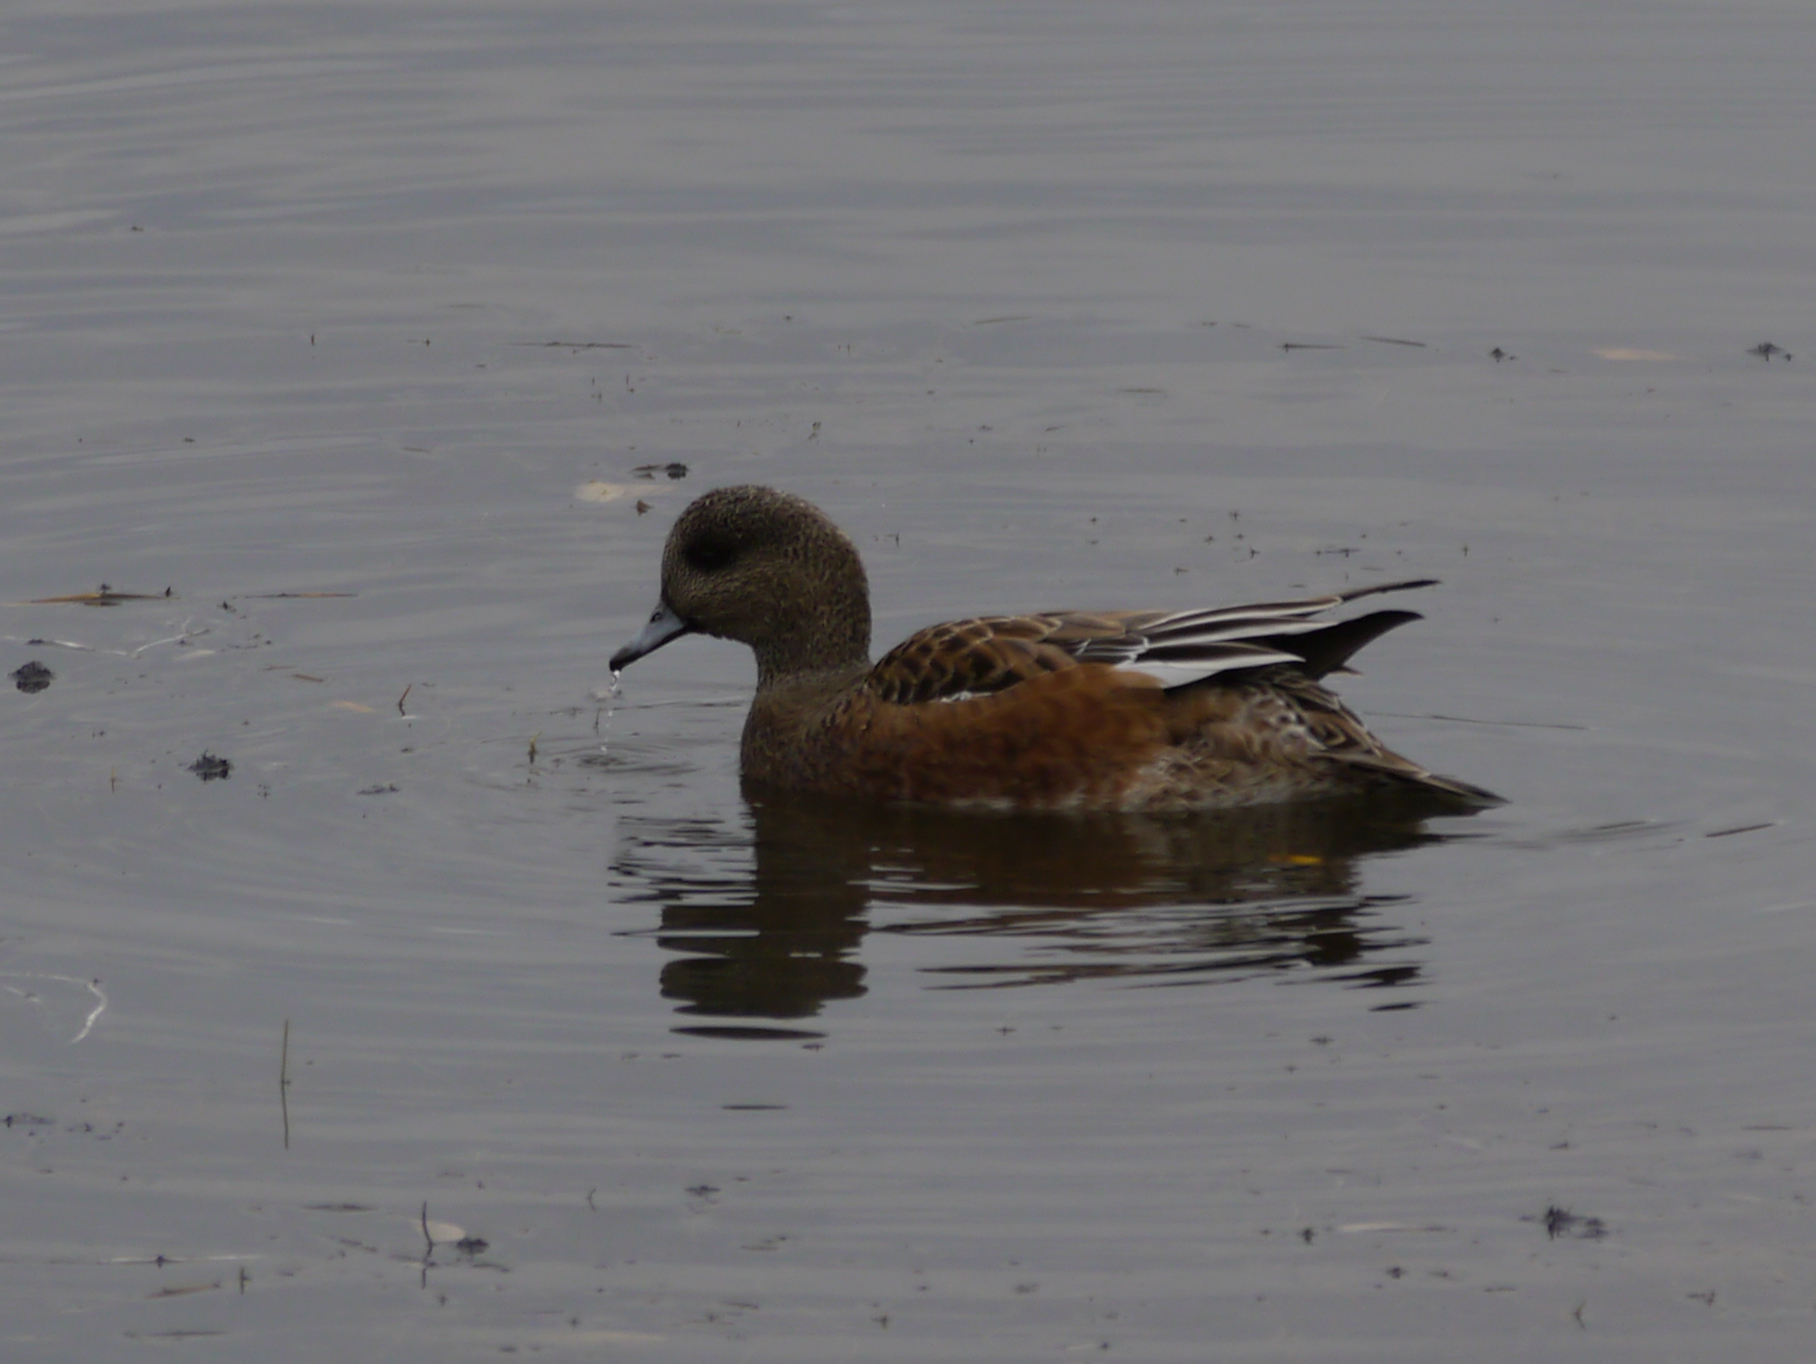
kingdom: Animalia
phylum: Chordata
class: Aves
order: Anseriformes
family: Anatidae
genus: Mareca
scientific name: Mareca americana
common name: American wigeon
